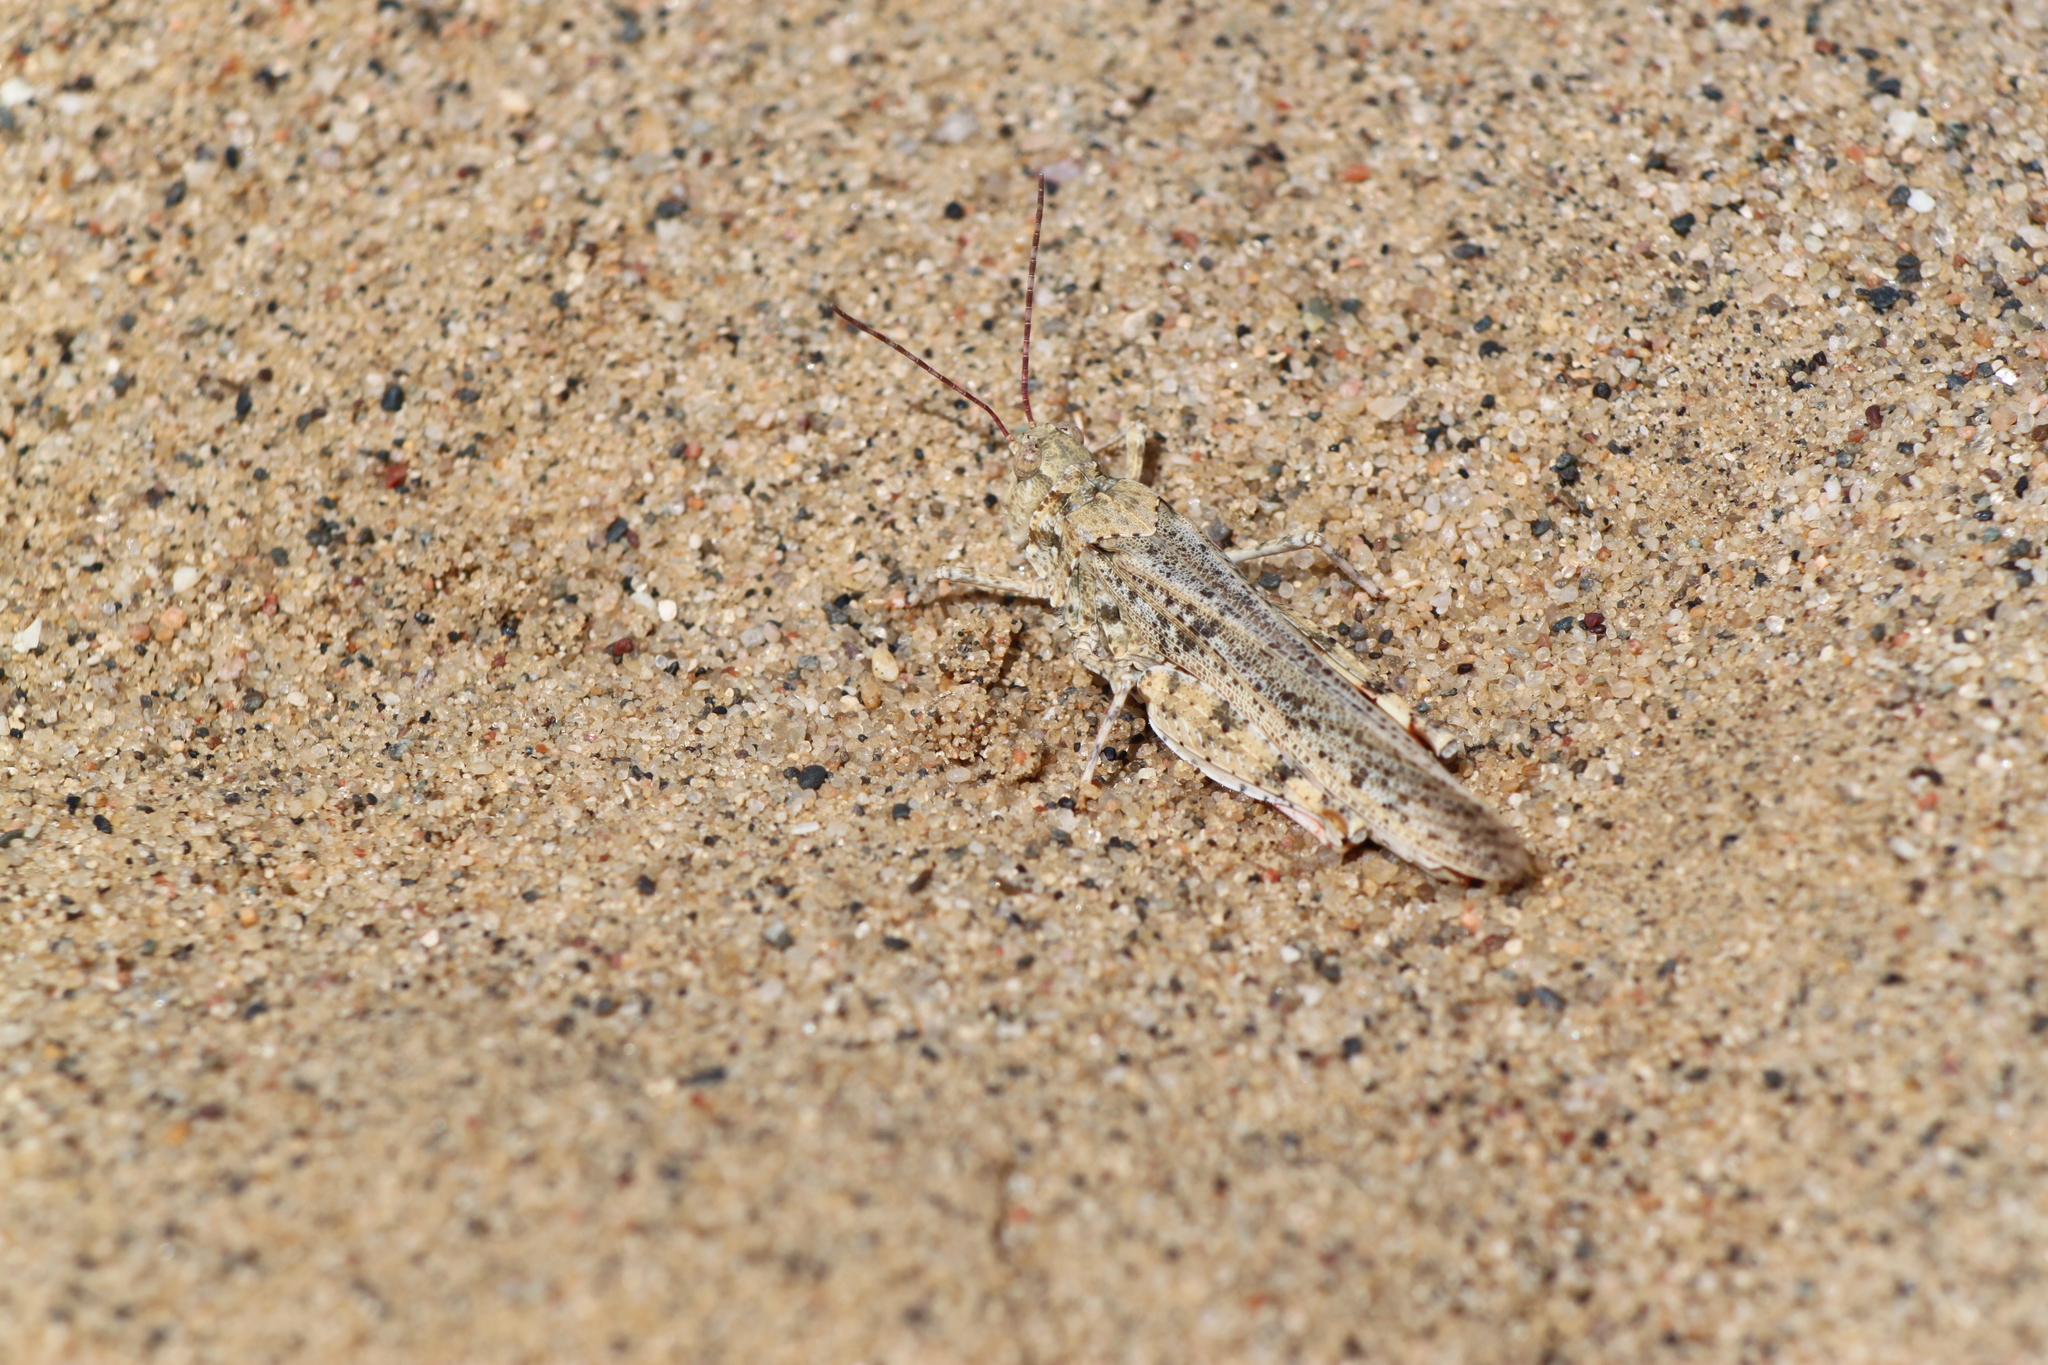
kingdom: Animalia
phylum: Arthropoda
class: Insecta
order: Orthoptera
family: Acrididae
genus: Trimerotropis
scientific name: Trimerotropis agrestis
